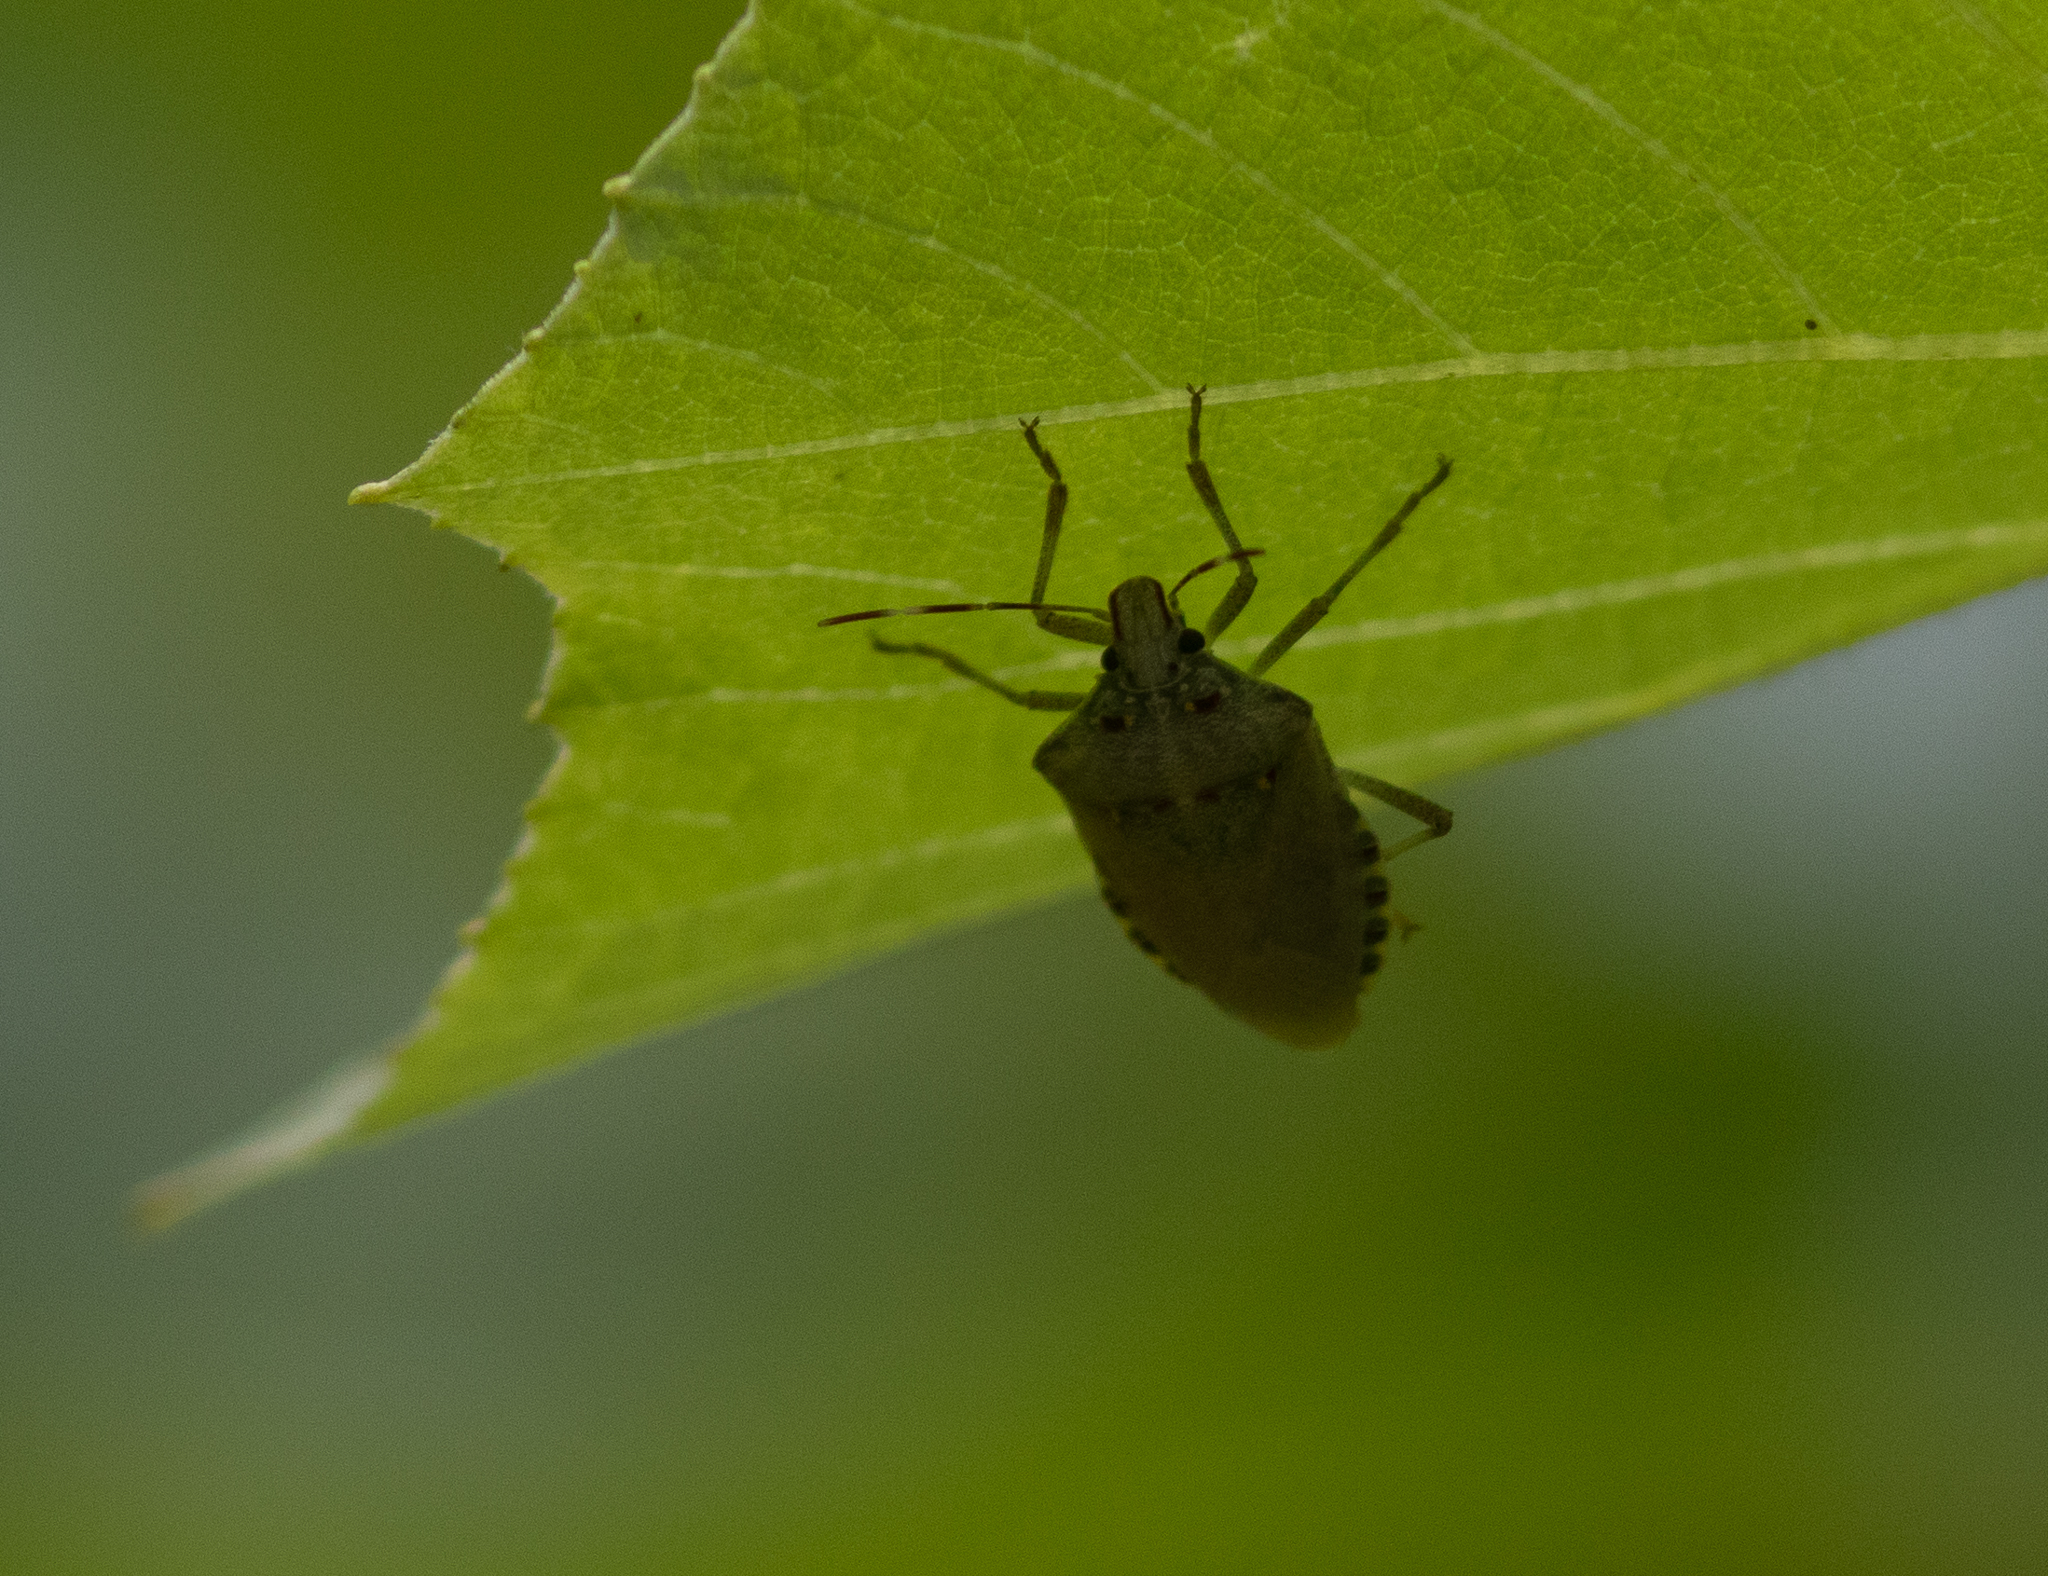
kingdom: Animalia
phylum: Arthropoda
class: Insecta
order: Hemiptera
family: Pentatomidae
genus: Halyomorpha
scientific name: Halyomorpha halys
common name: Brown marmorated stink bug
